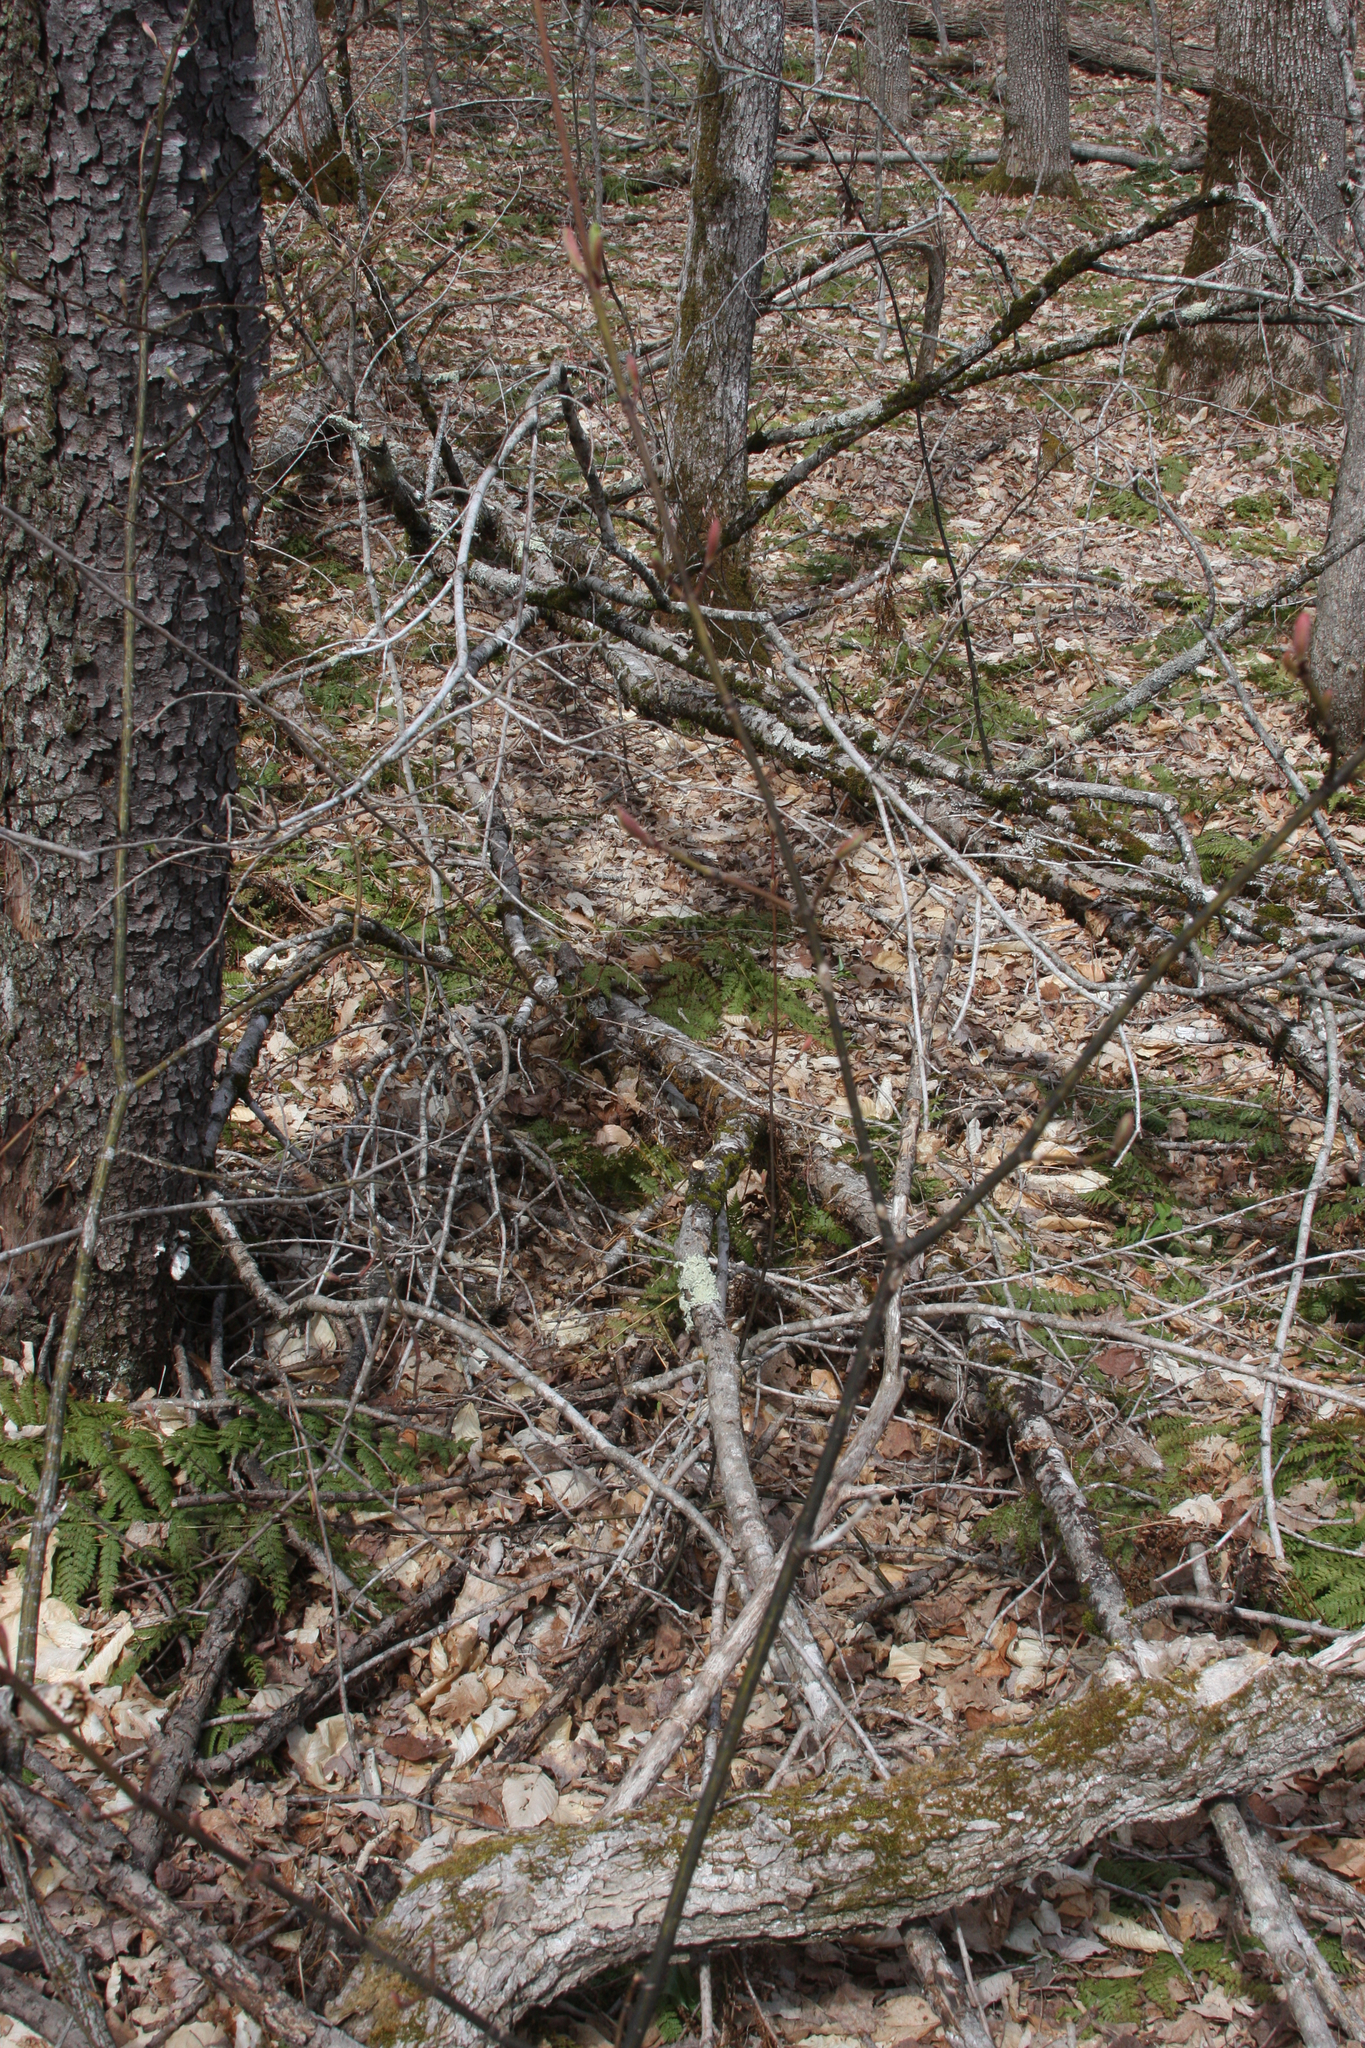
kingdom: Plantae
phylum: Tracheophyta
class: Magnoliopsida
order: Sapindales
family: Sapindaceae
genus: Acer
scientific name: Acer pensylvanicum
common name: Moosewood
